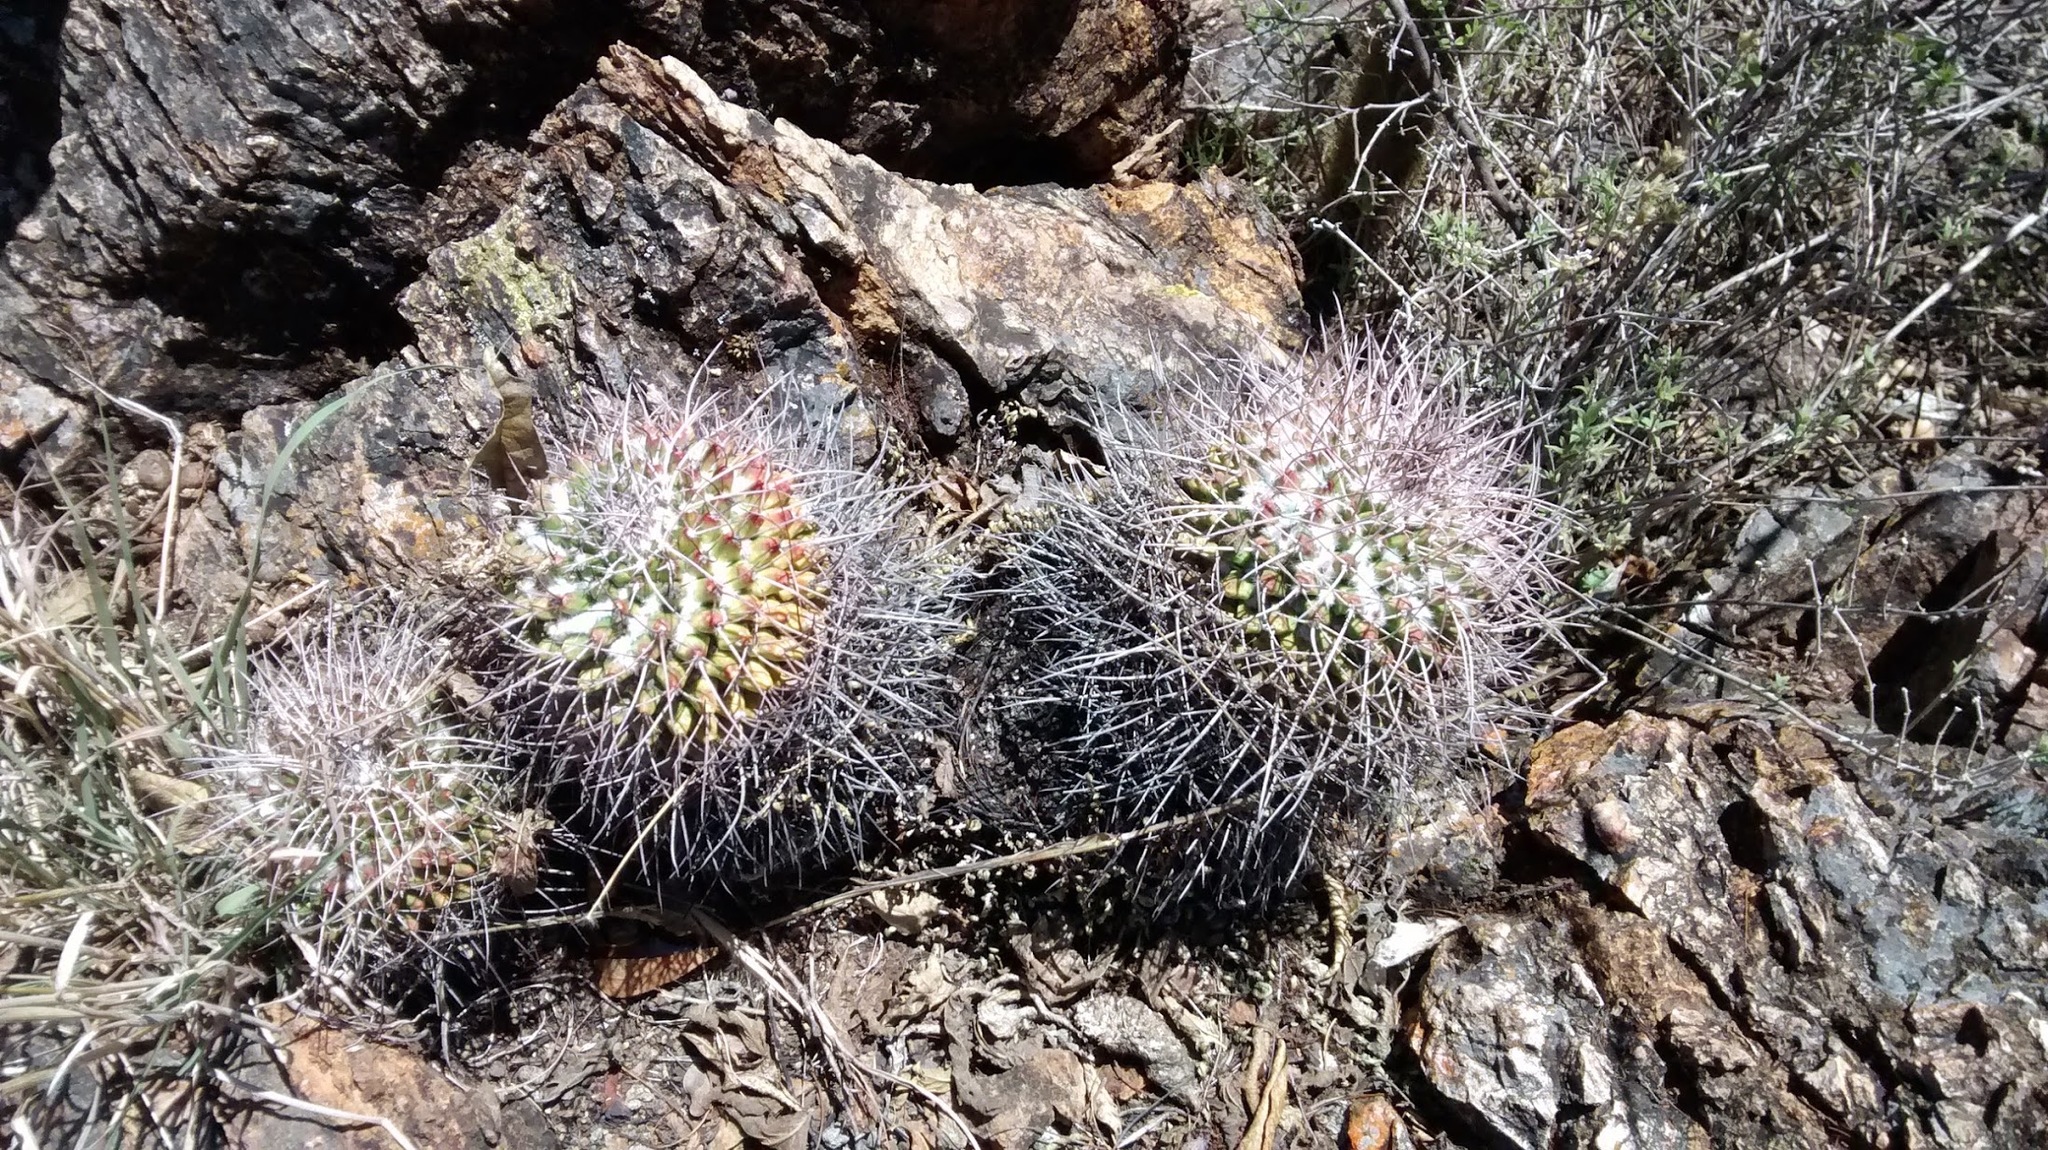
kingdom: Plantae
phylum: Tracheophyta
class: Magnoliopsida
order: Caryophyllales
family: Cactaceae
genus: Mammillaria
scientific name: Mammillaria polyedra
